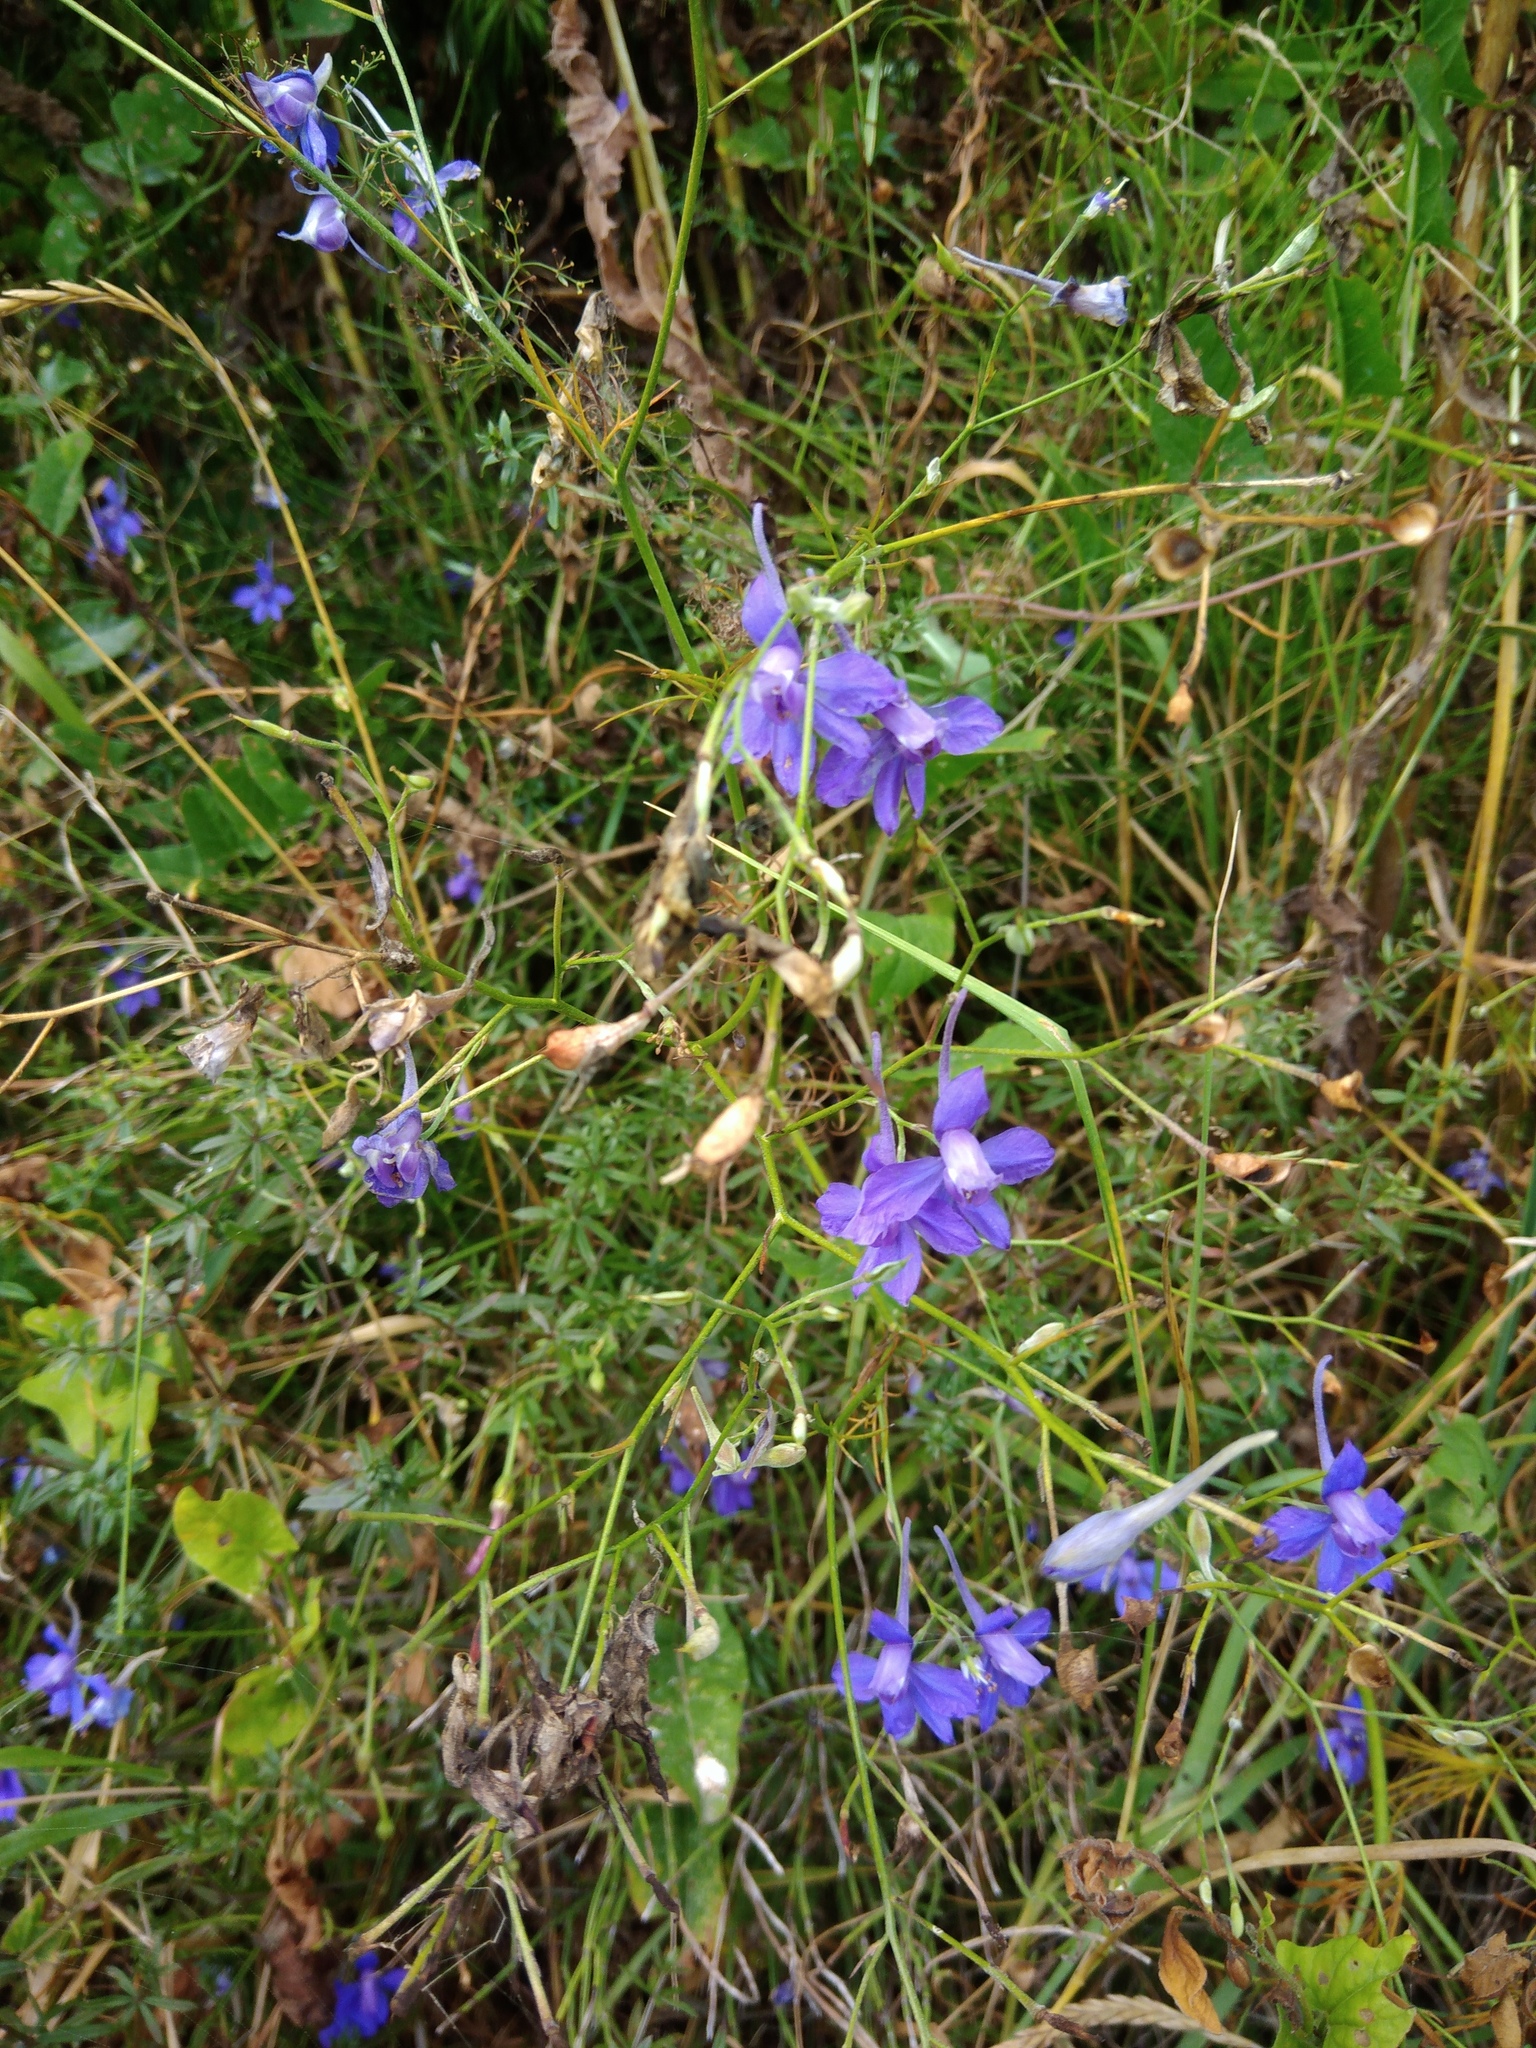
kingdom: Plantae
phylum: Tracheophyta
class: Magnoliopsida
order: Ranunculales
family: Ranunculaceae
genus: Delphinium
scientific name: Delphinium consolida
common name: Branching larkspur
